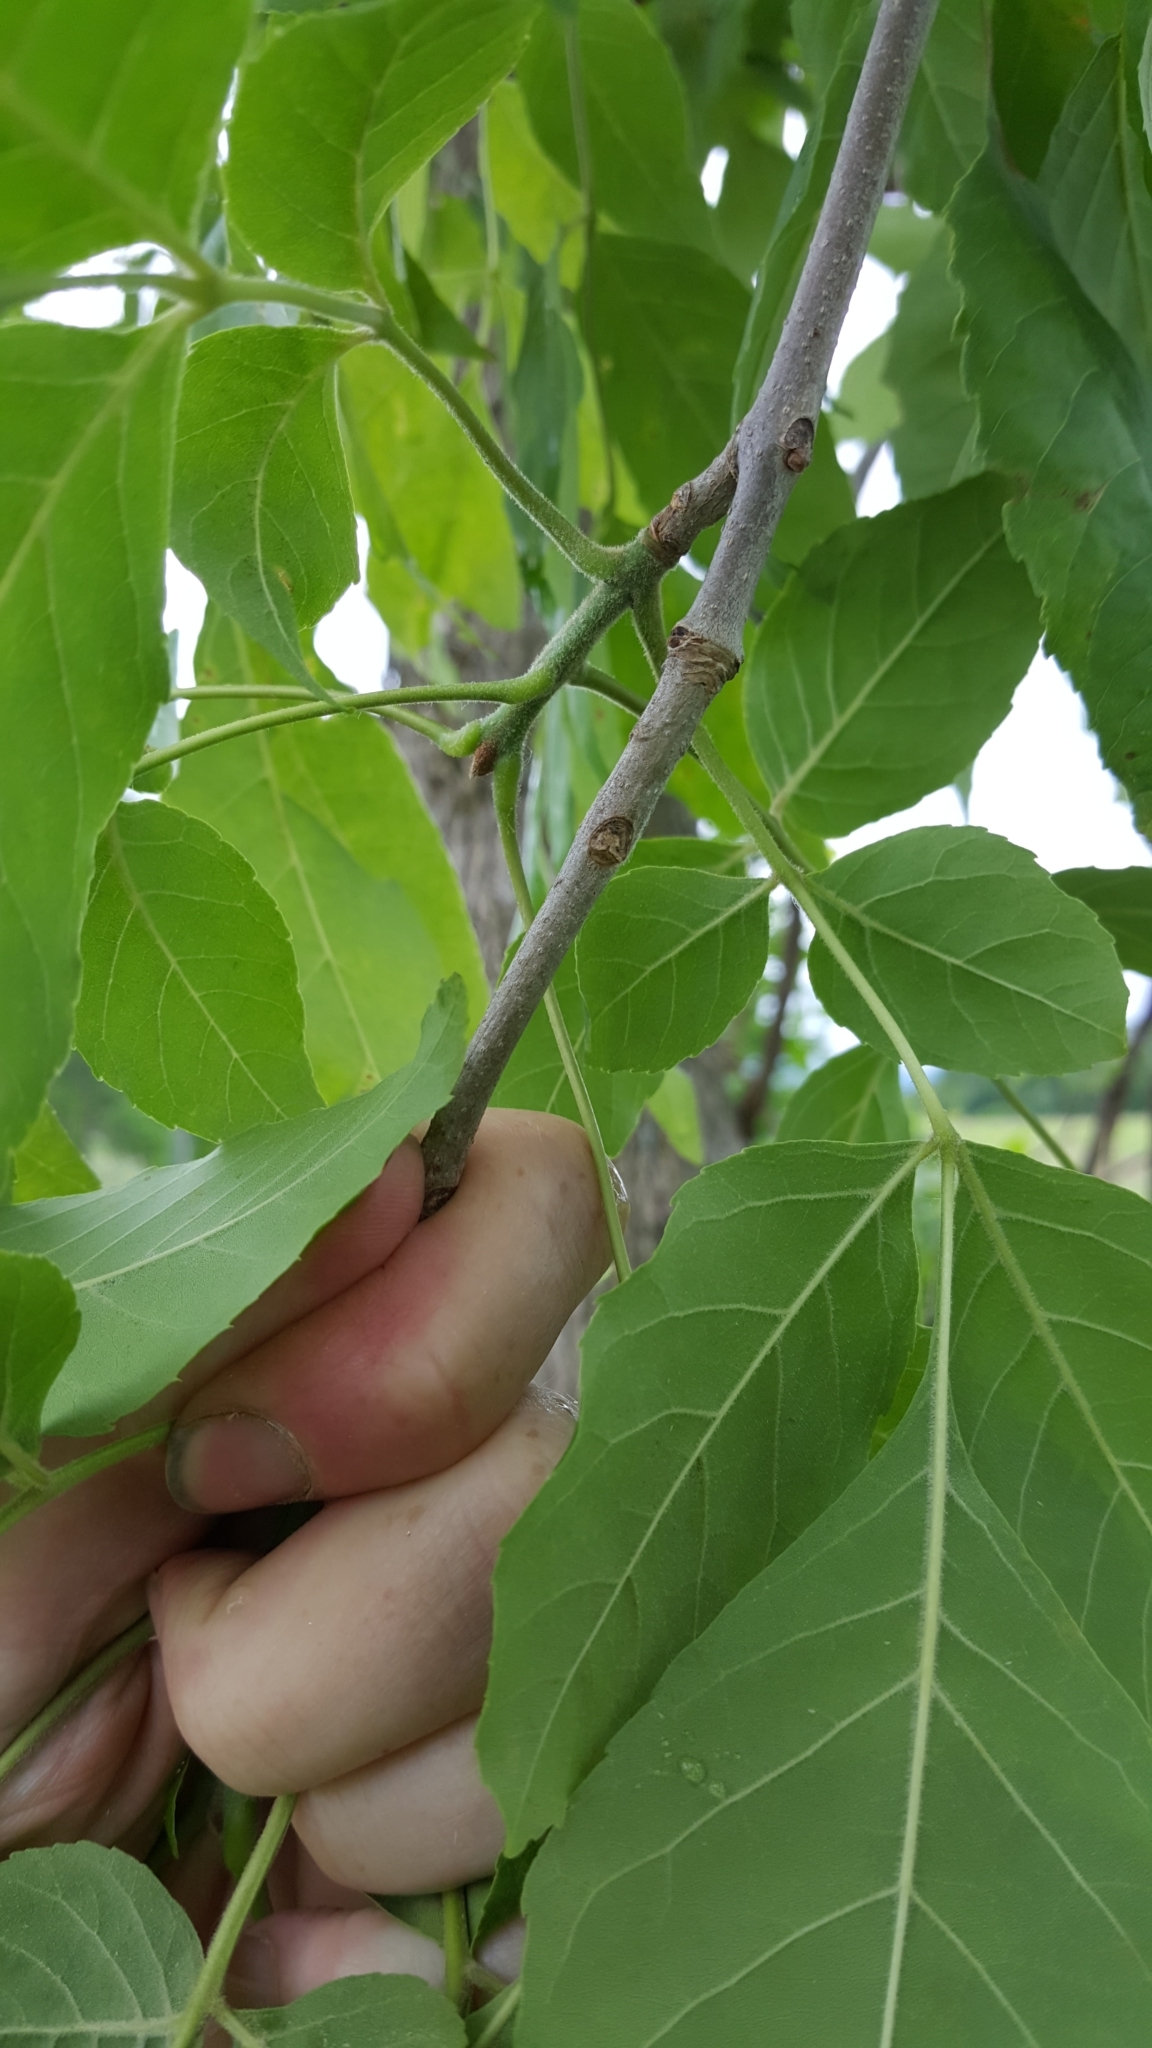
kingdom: Plantae
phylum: Tracheophyta
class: Magnoliopsida
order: Lamiales
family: Oleaceae
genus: Fraxinus
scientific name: Fraxinus pennsylvanica
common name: Green ash
